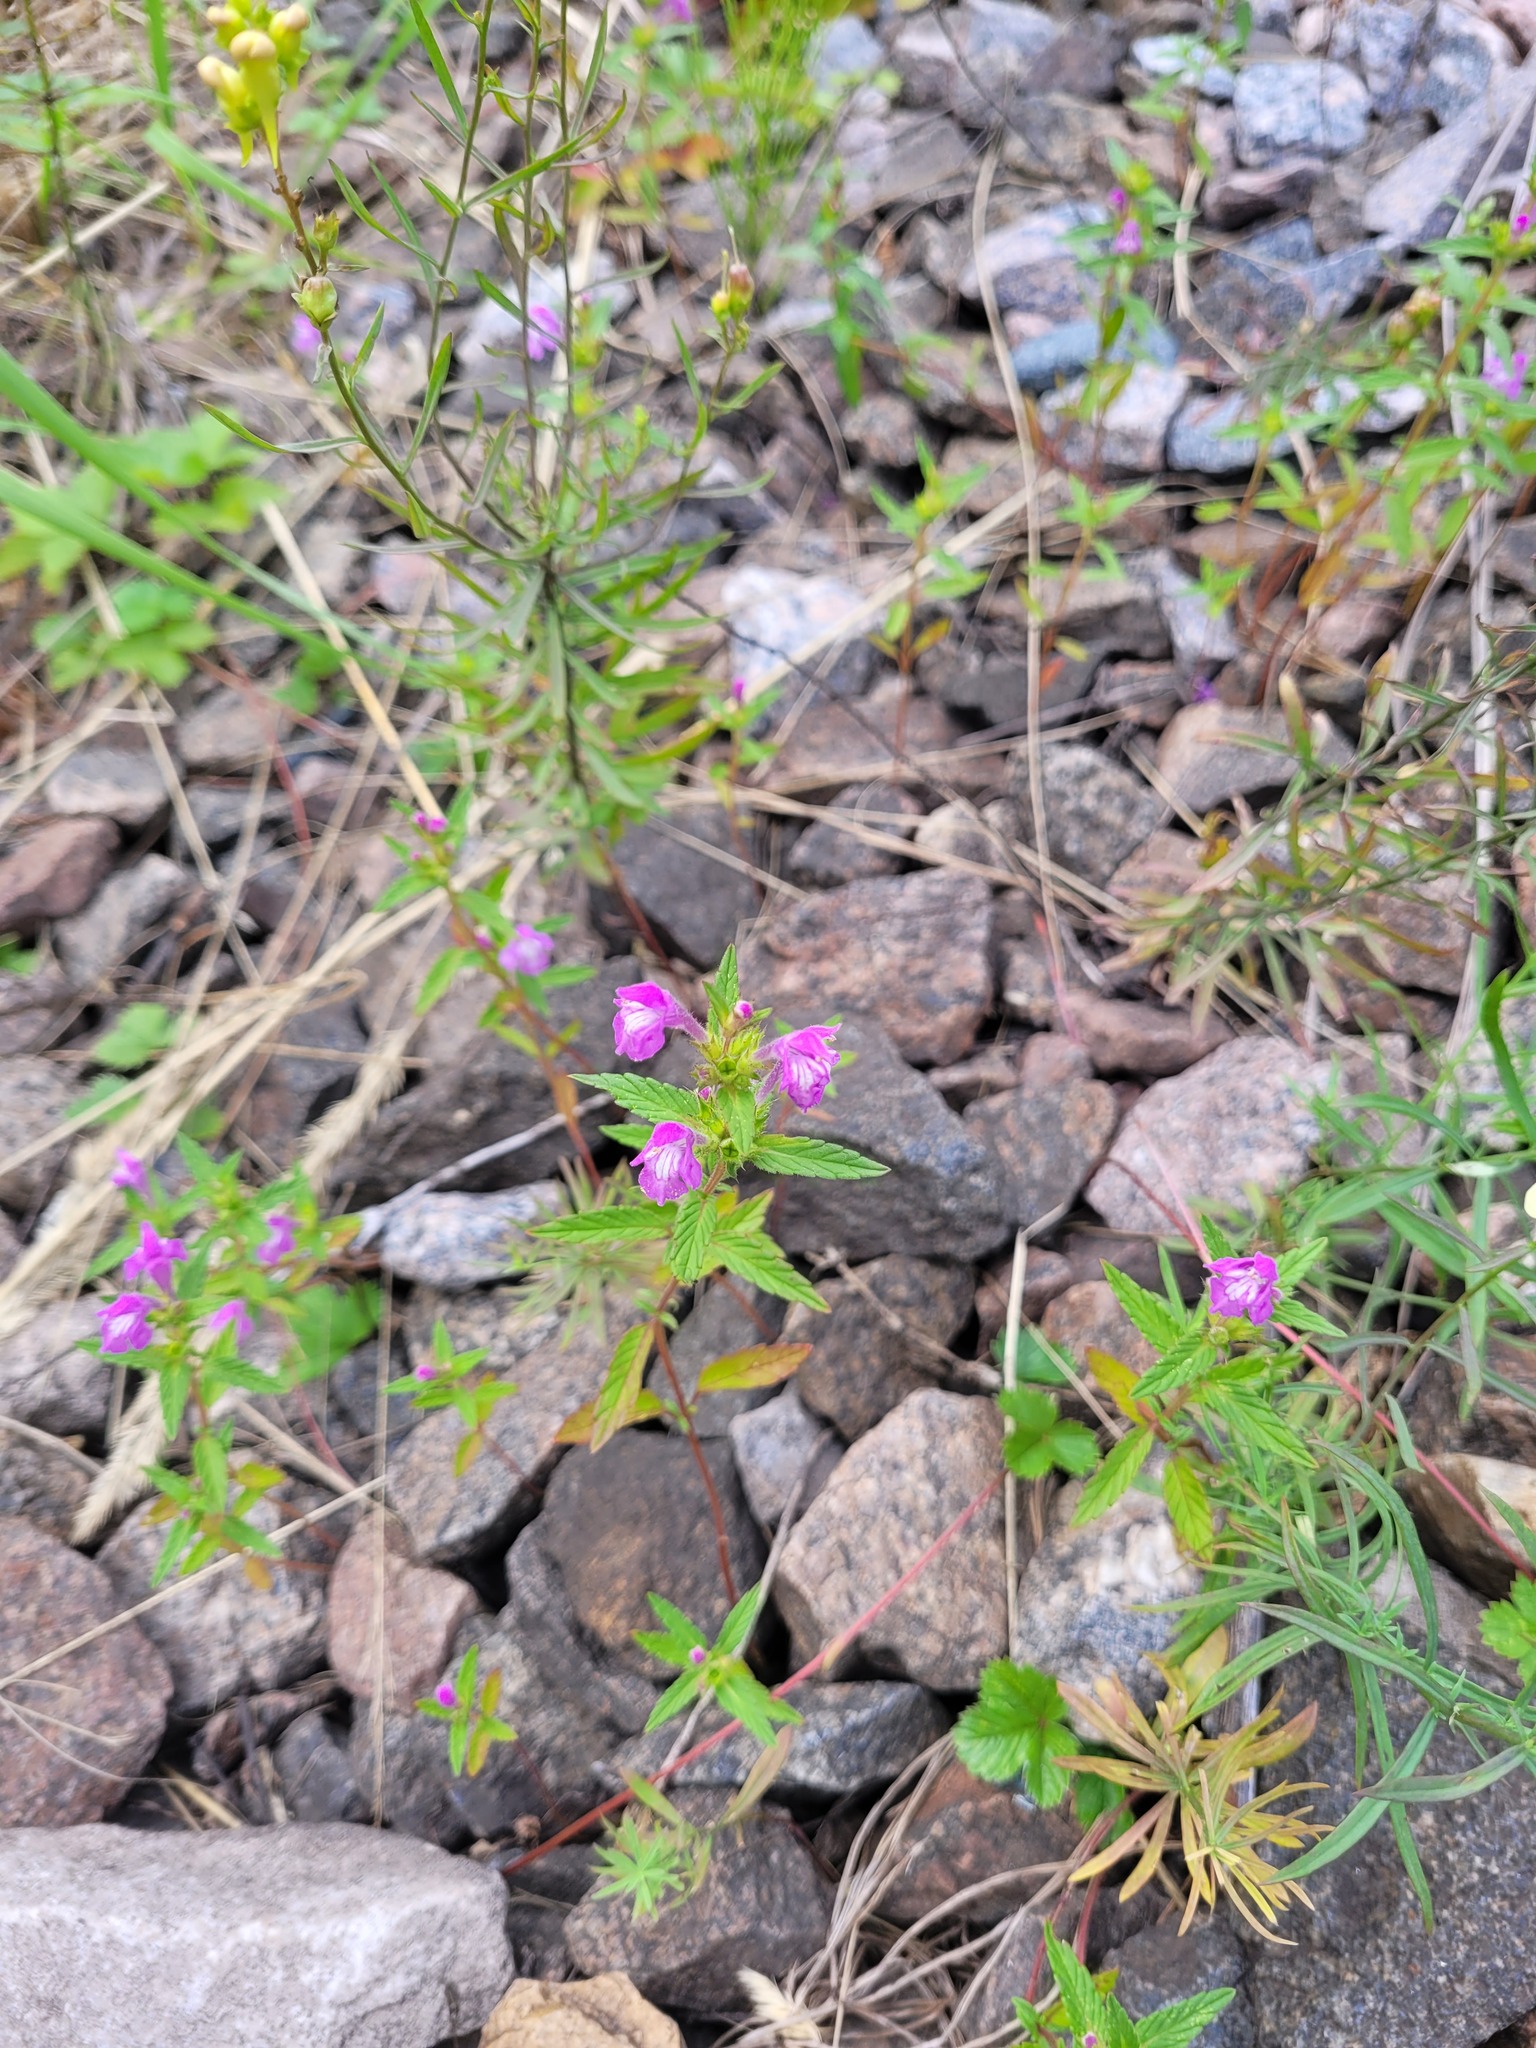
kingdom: Plantae
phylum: Tracheophyta
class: Magnoliopsida
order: Lamiales
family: Lamiaceae
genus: Galeopsis
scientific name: Galeopsis ladanum
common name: Broad-leaved hemp-nettle
